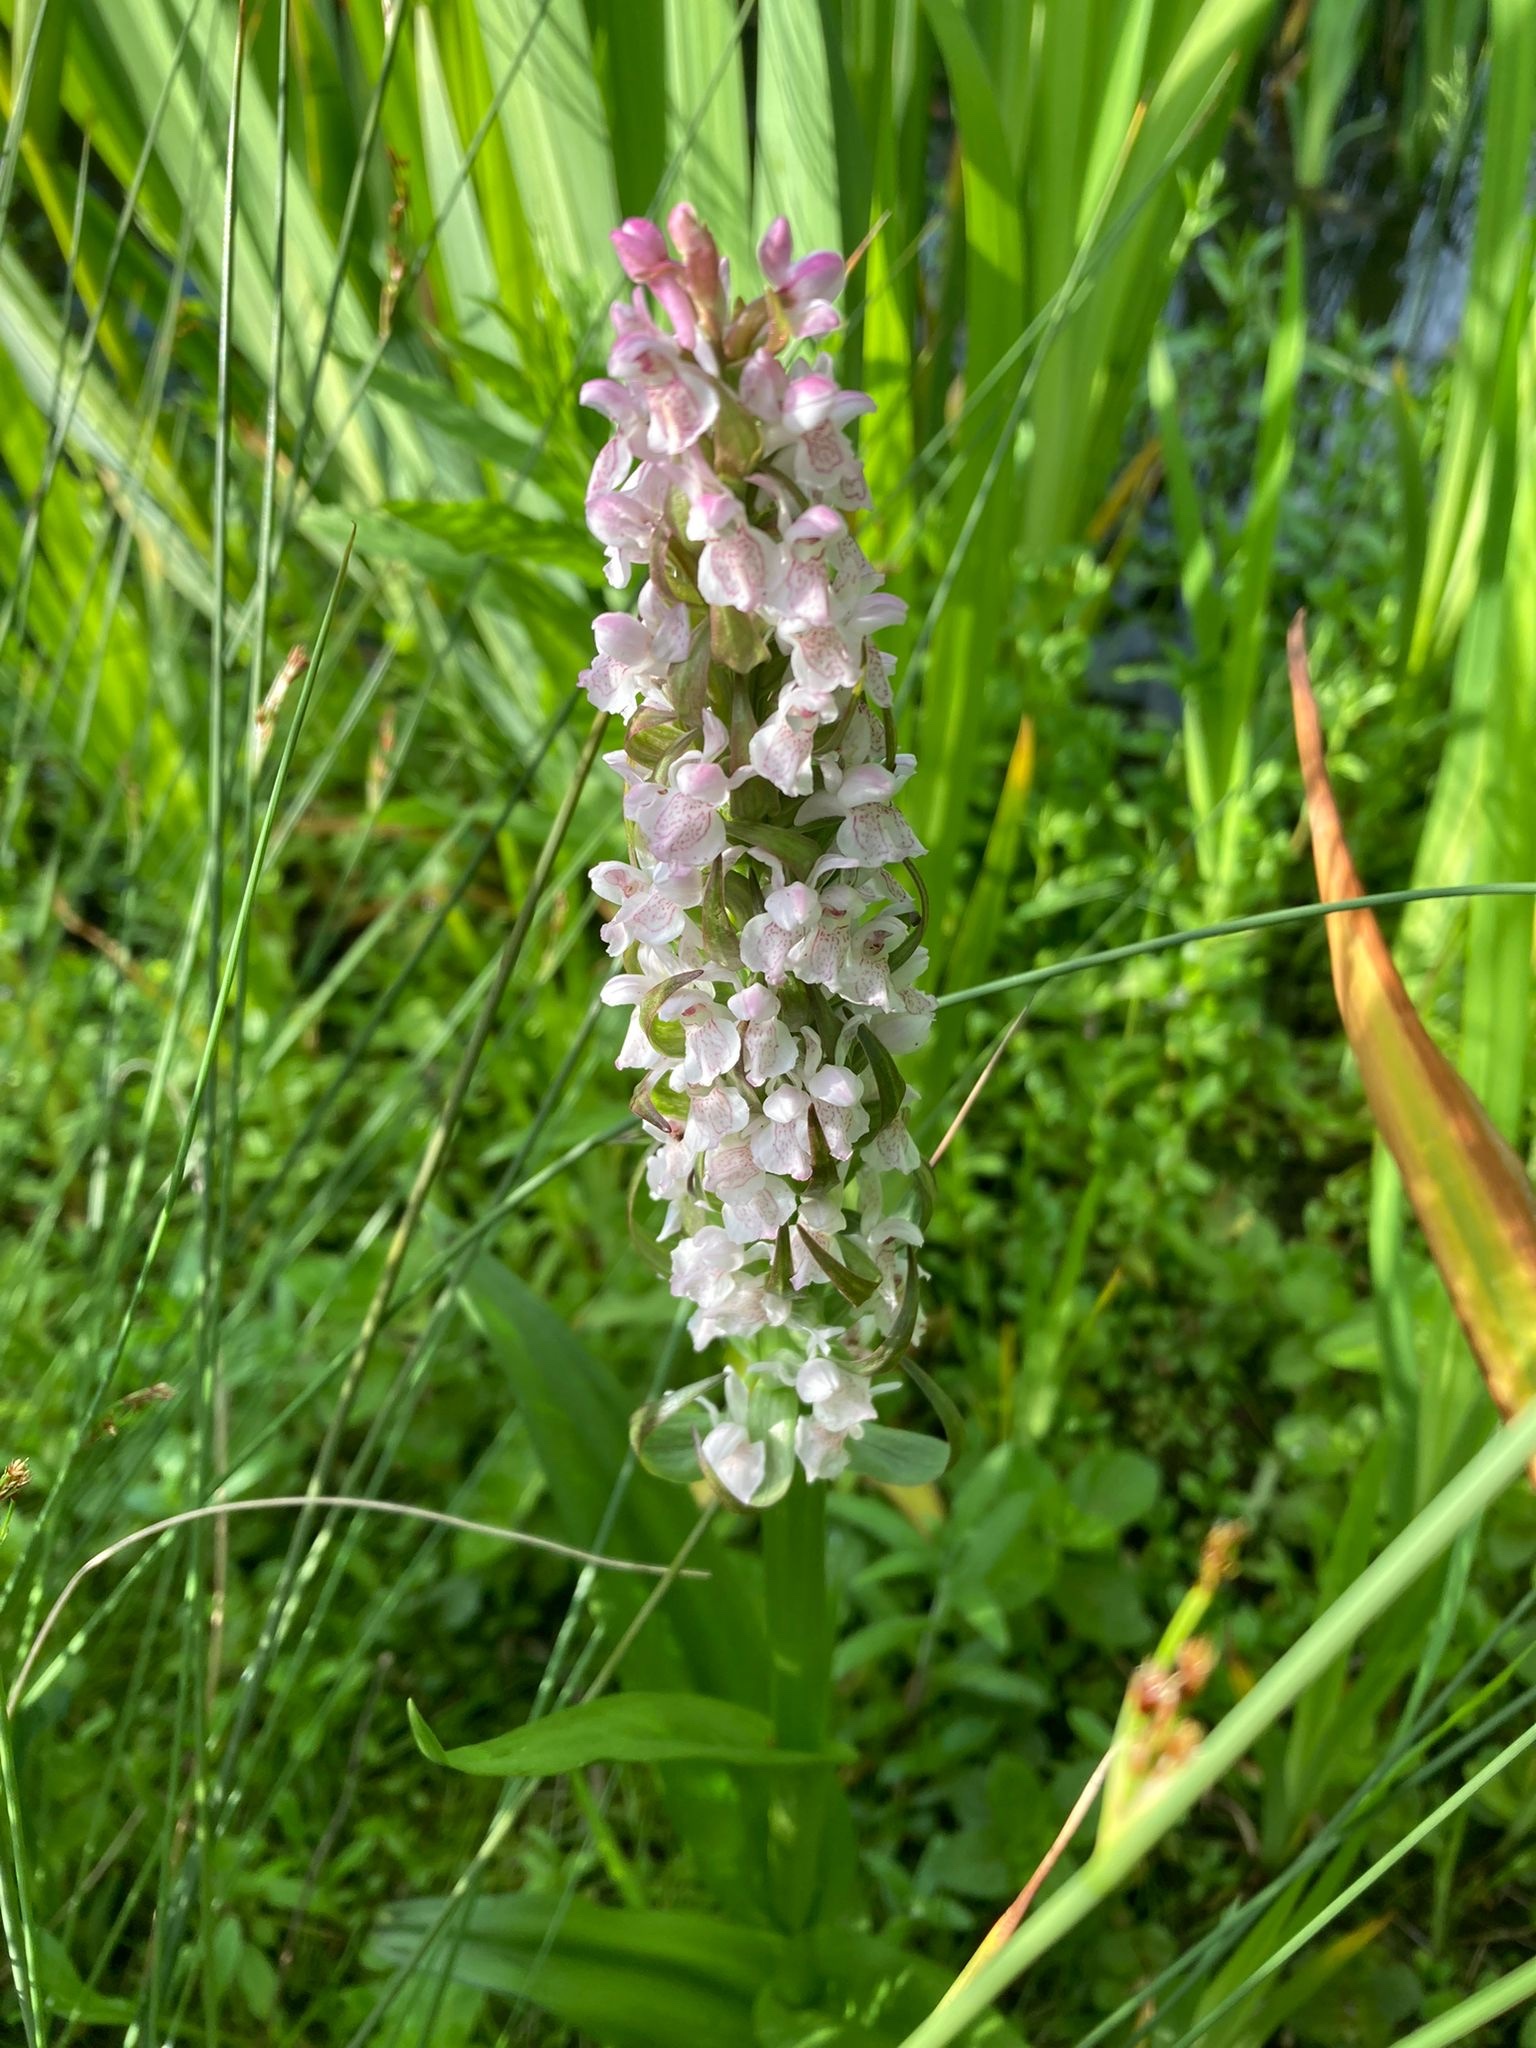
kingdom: Plantae
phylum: Tracheophyta
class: Liliopsida
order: Asparagales
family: Orchidaceae
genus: Dactylorhiza
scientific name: Dactylorhiza incarnata
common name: Early marsh-orchid
